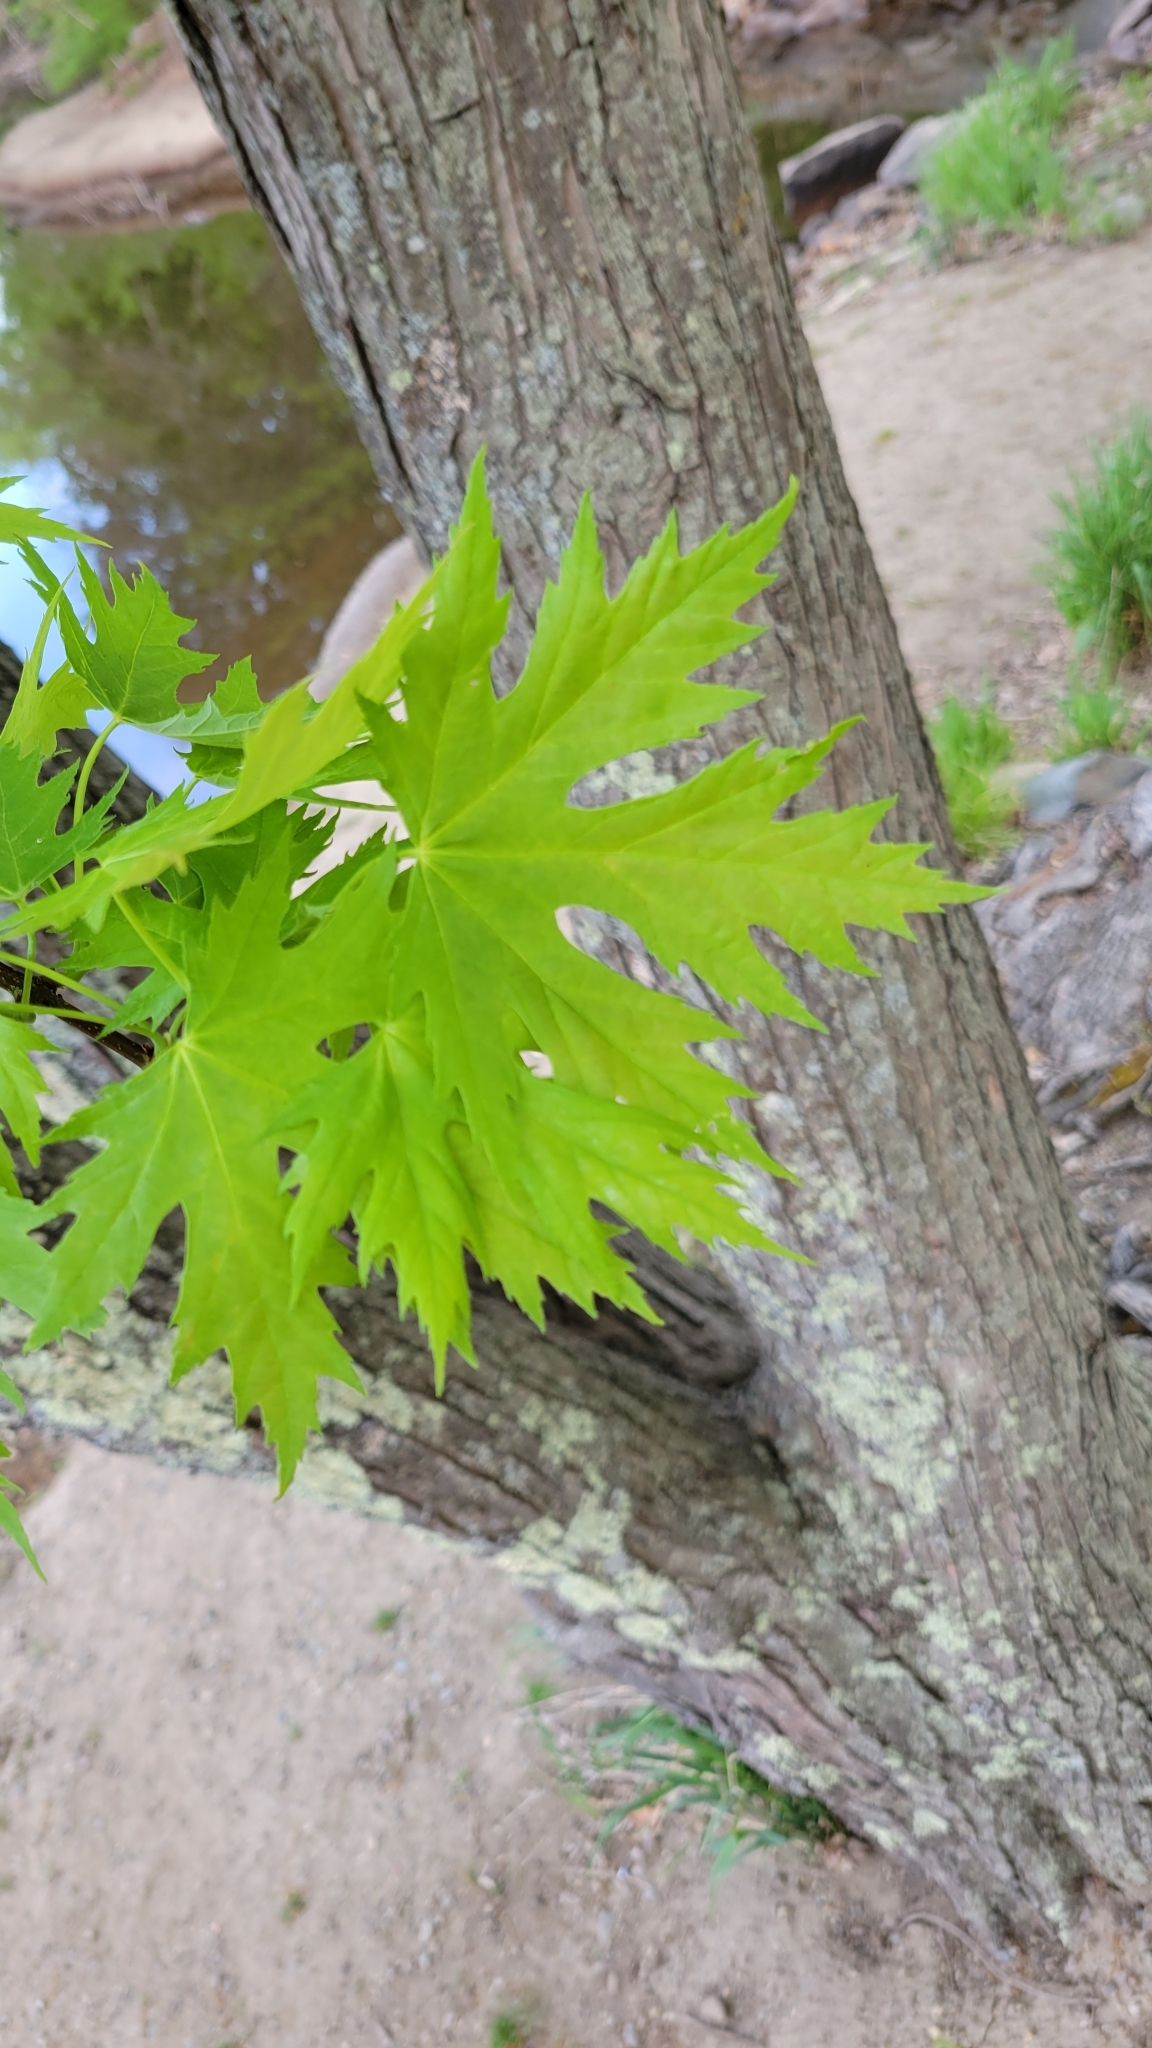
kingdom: Plantae
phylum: Tracheophyta
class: Magnoliopsida
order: Sapindales
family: Sapindaceae
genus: Acer
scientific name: Acer saccharinum
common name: Silver maple
